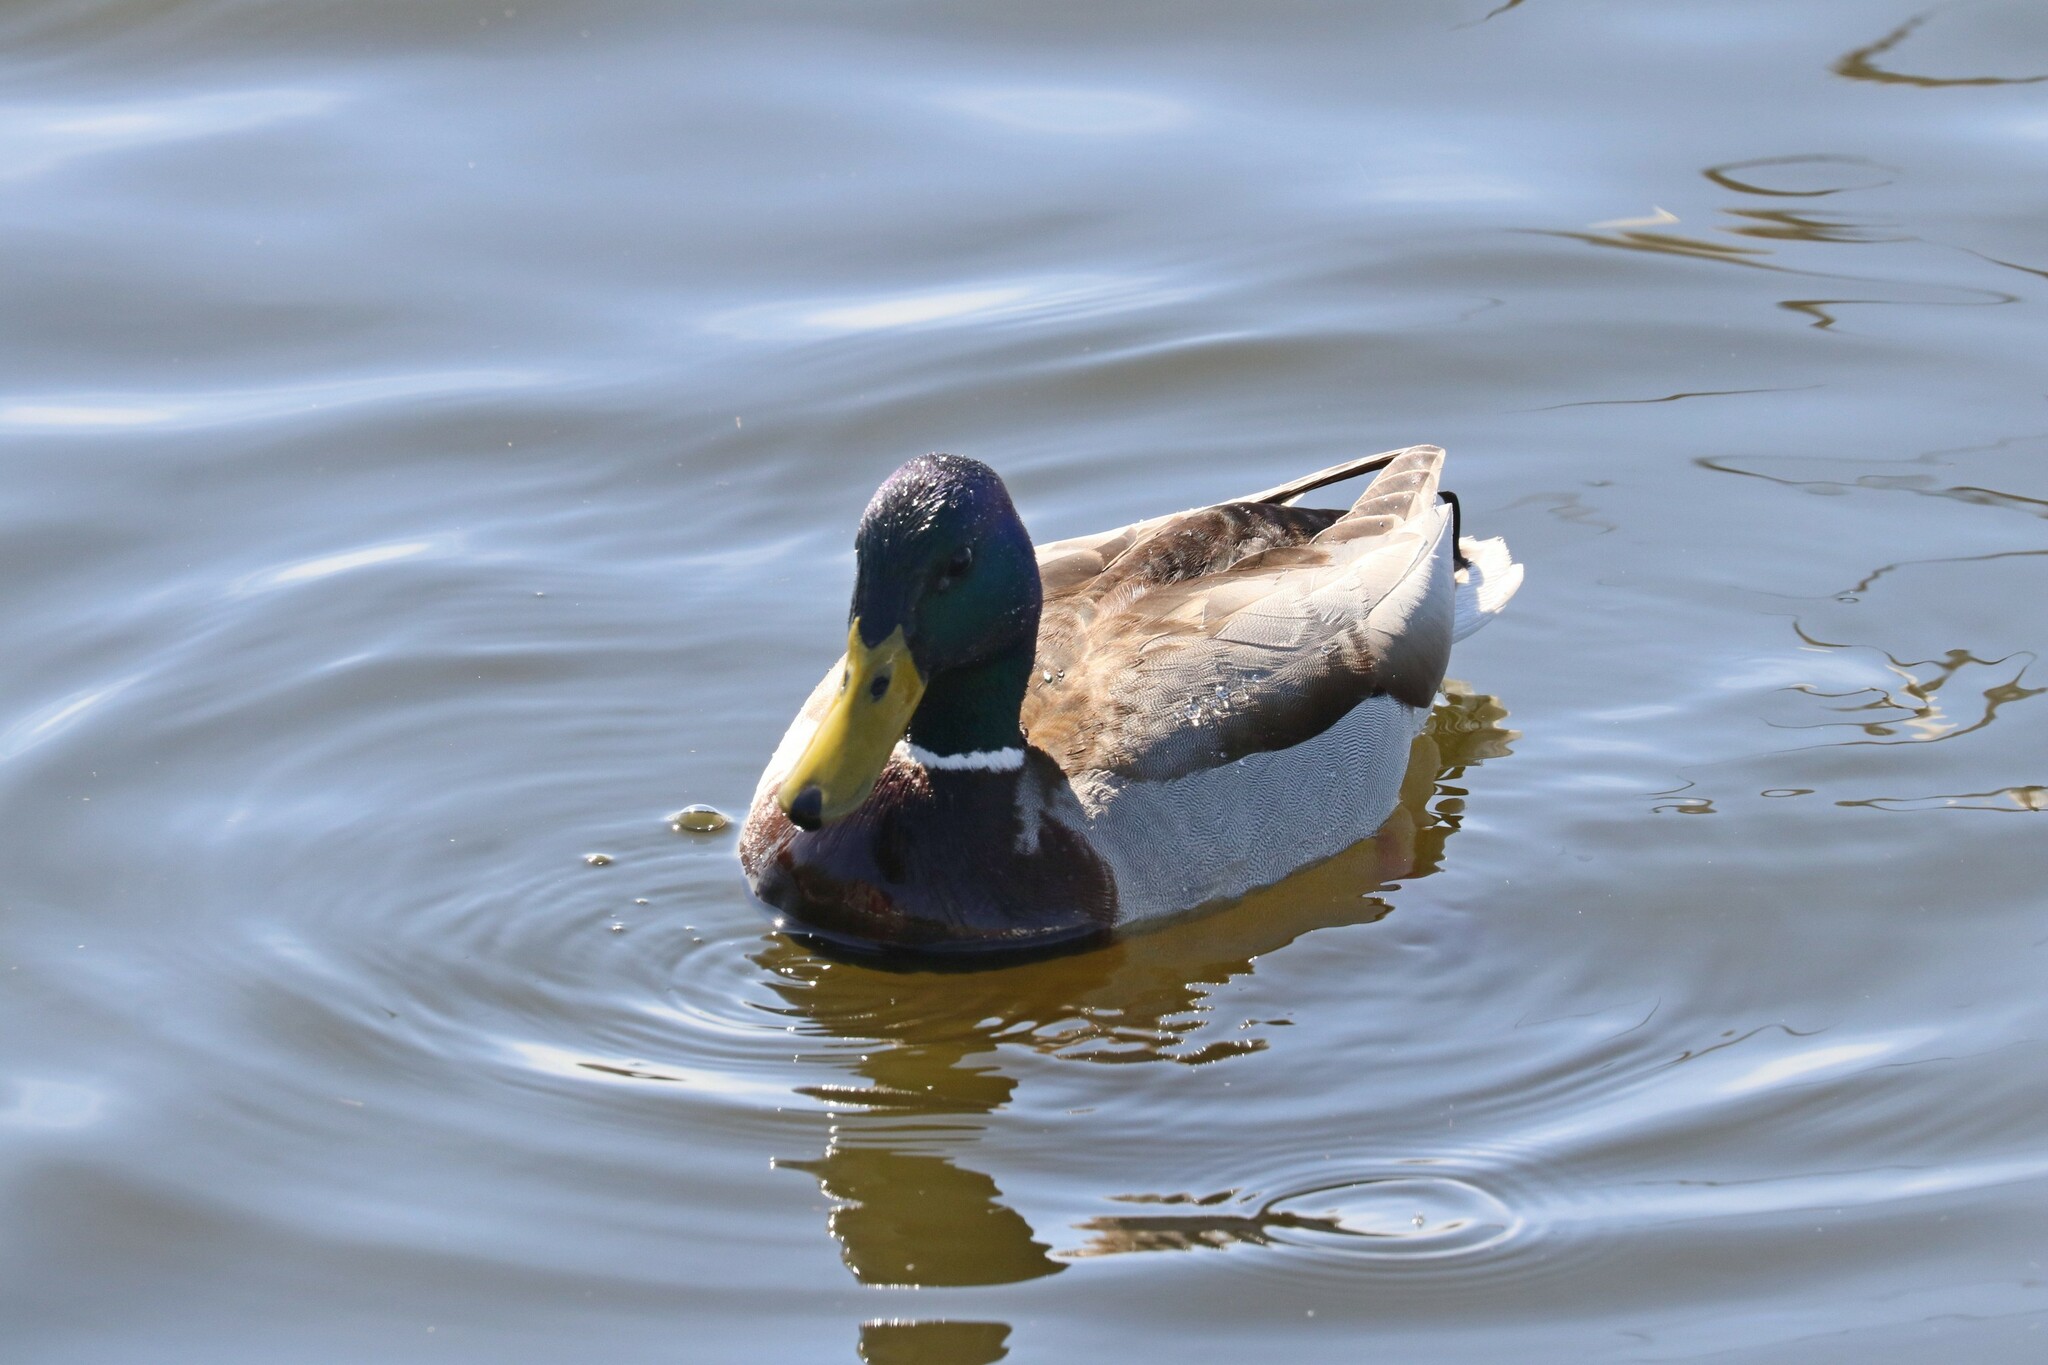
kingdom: Animalia
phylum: Chordata
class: Aves
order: Anseriformes
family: Anatidae
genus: Anas
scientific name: Anas platyrhynchos
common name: Mallard
